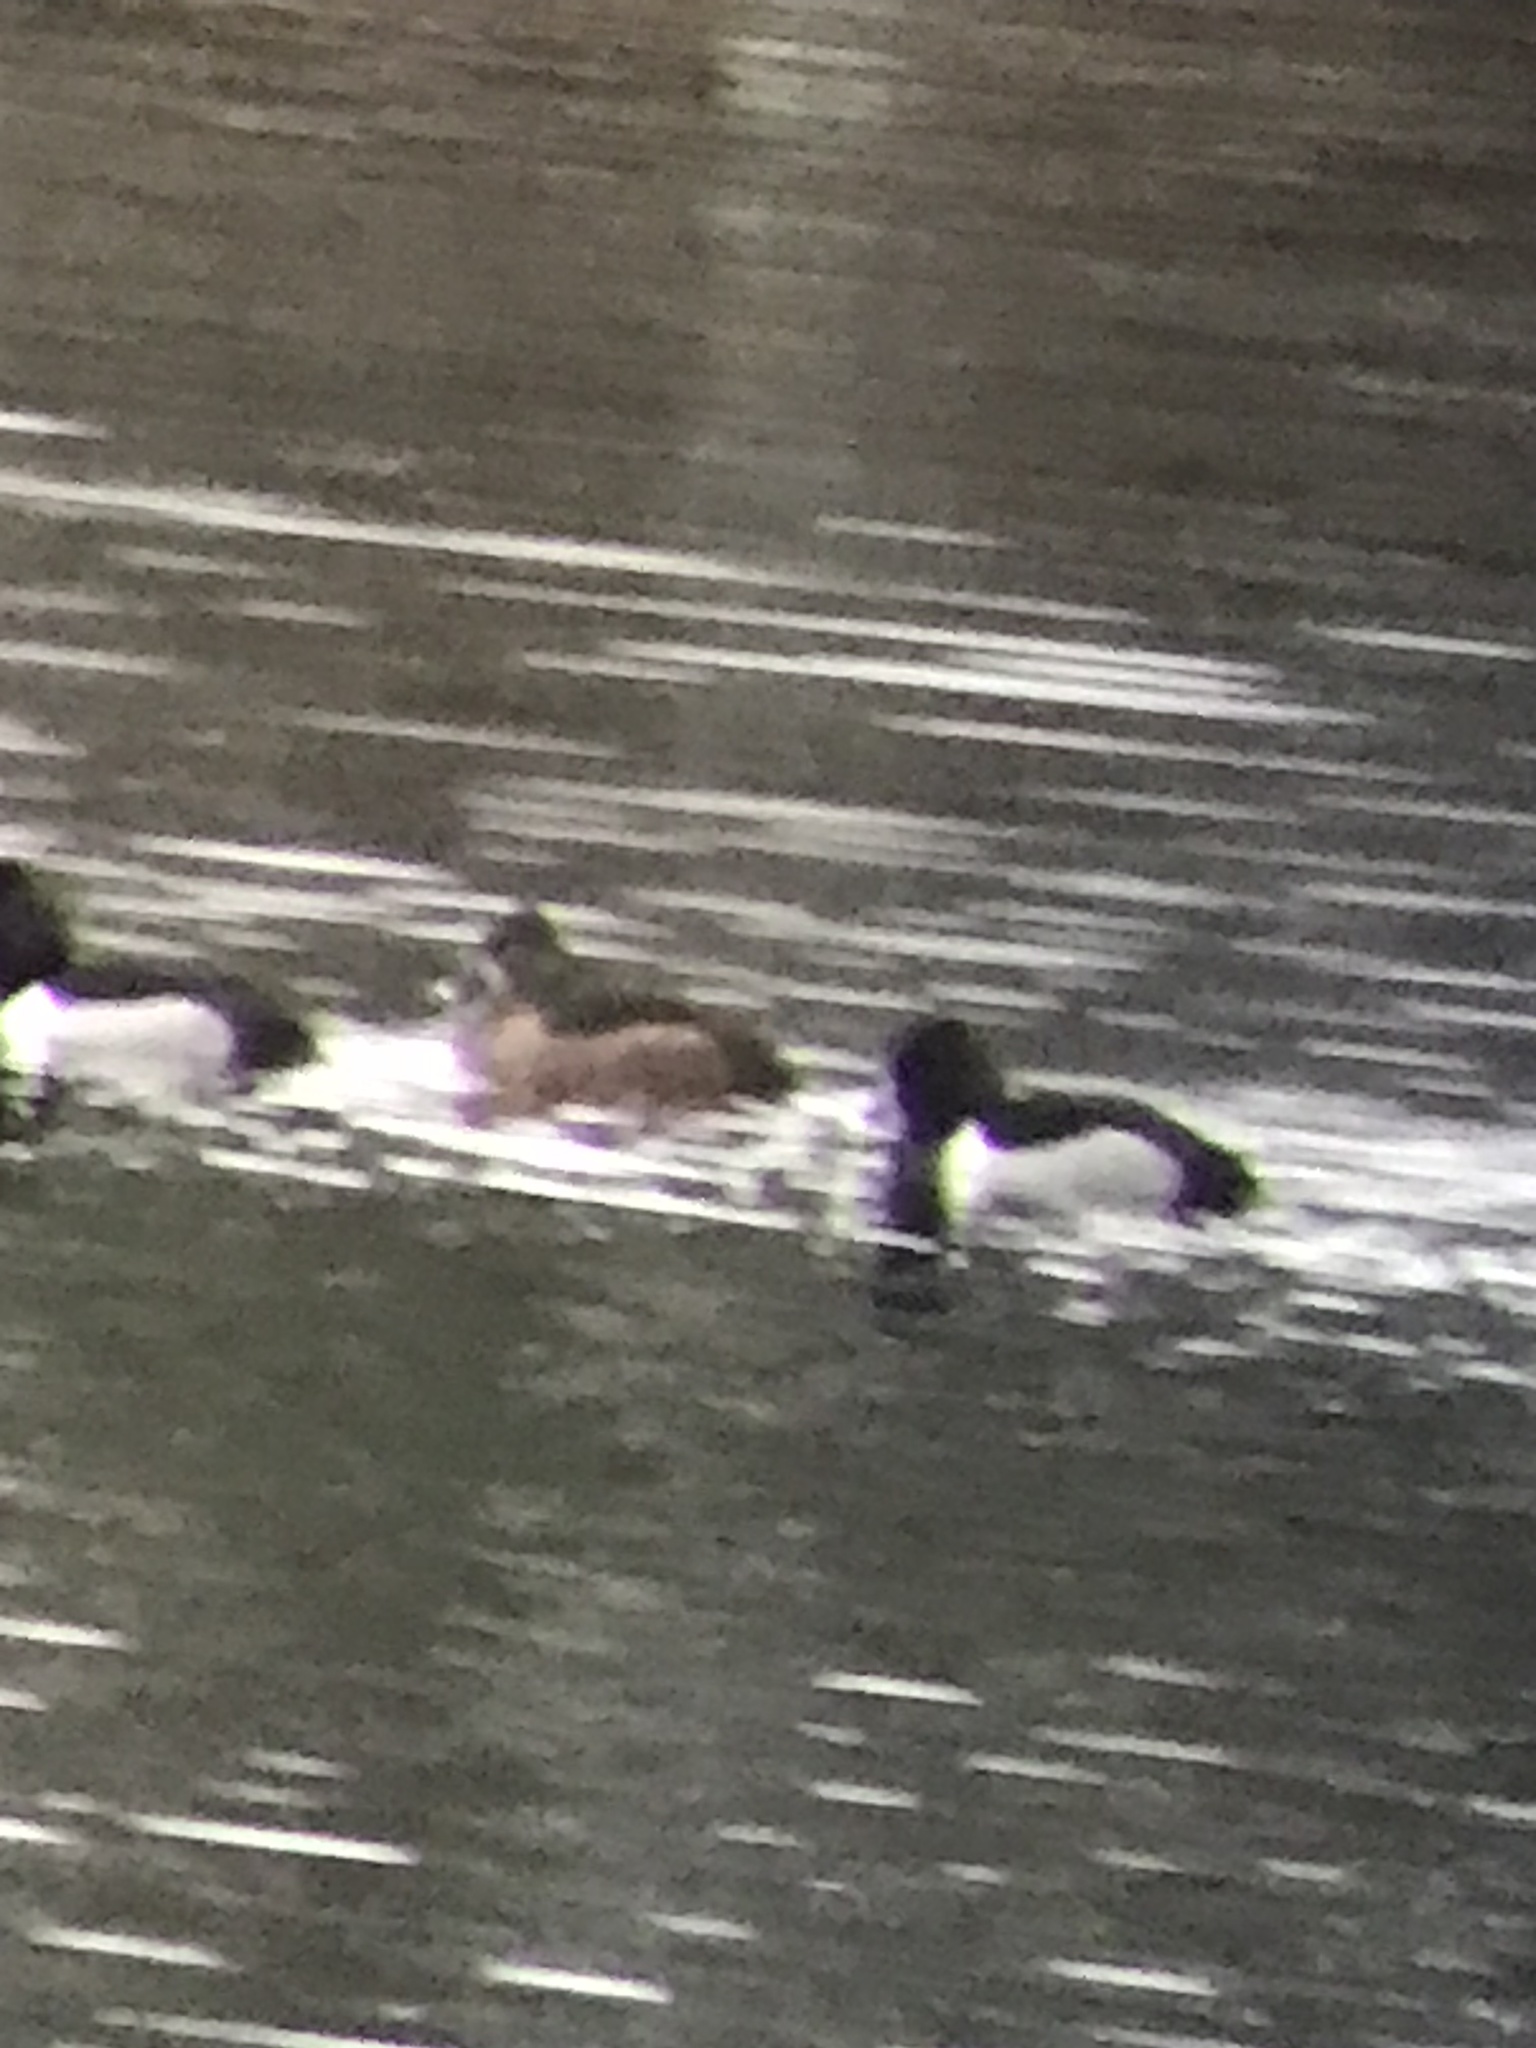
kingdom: Animalia
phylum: Chordata
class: Aves
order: Anseriformes
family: Anatidae
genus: Aythya
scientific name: Aythya collaris
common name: Ring-necked duck
